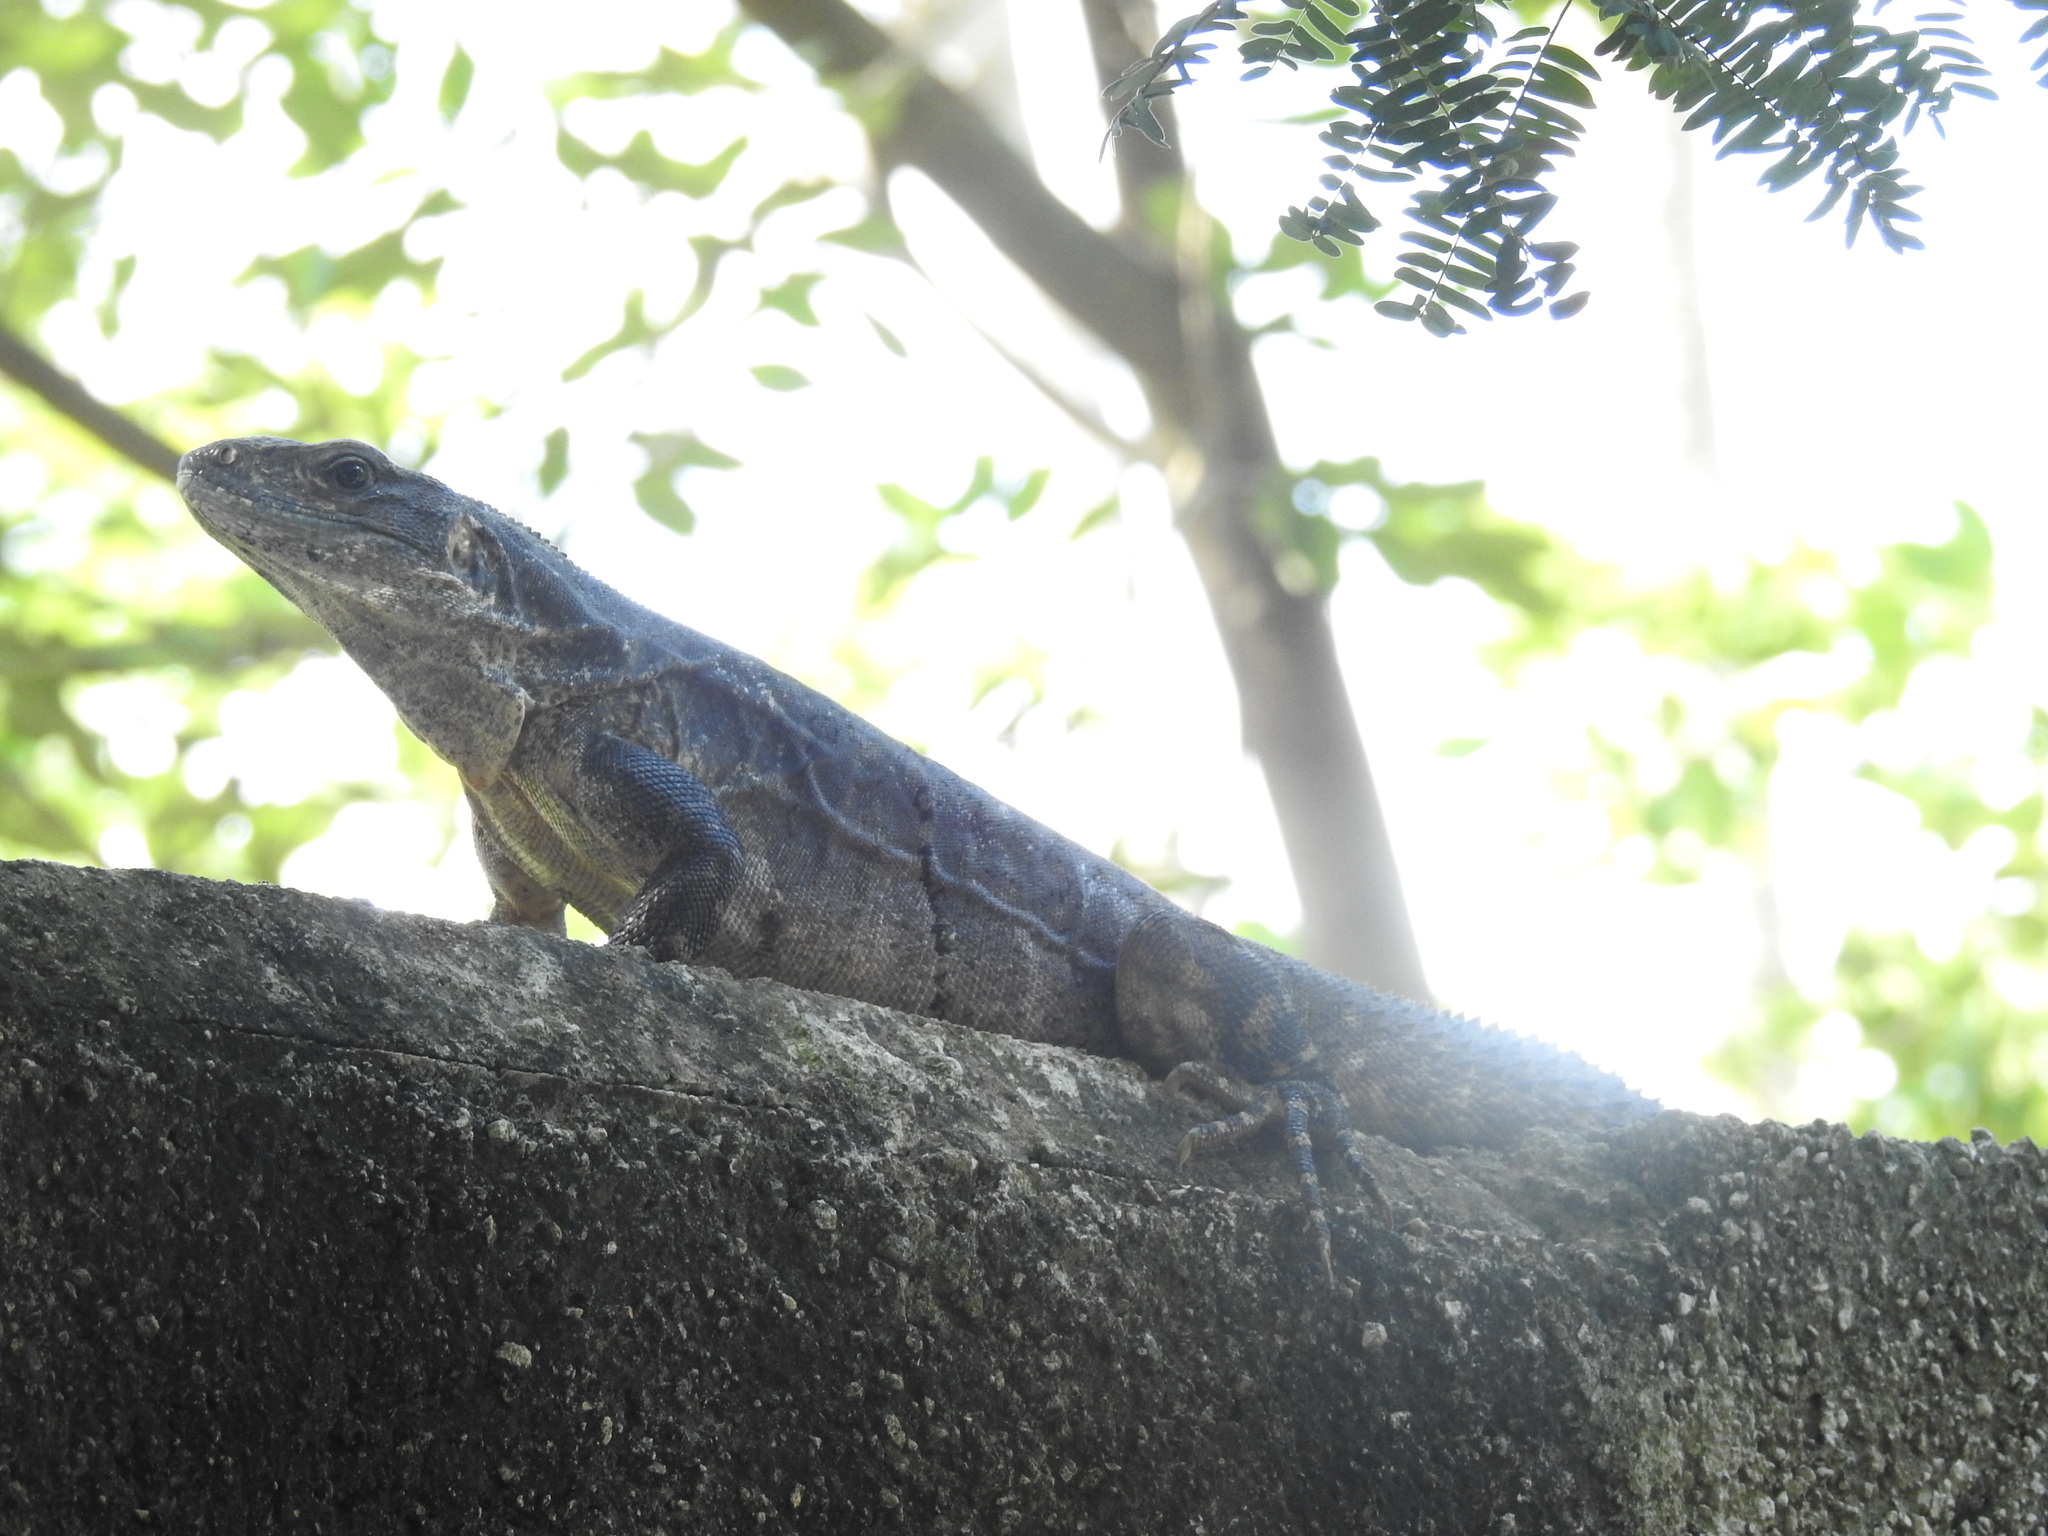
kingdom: Animalia
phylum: Chordata
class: Squamata
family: Iguanidae
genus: Ctenosaura
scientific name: Ctenosaura similis
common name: Black spiny-tailed iguana
